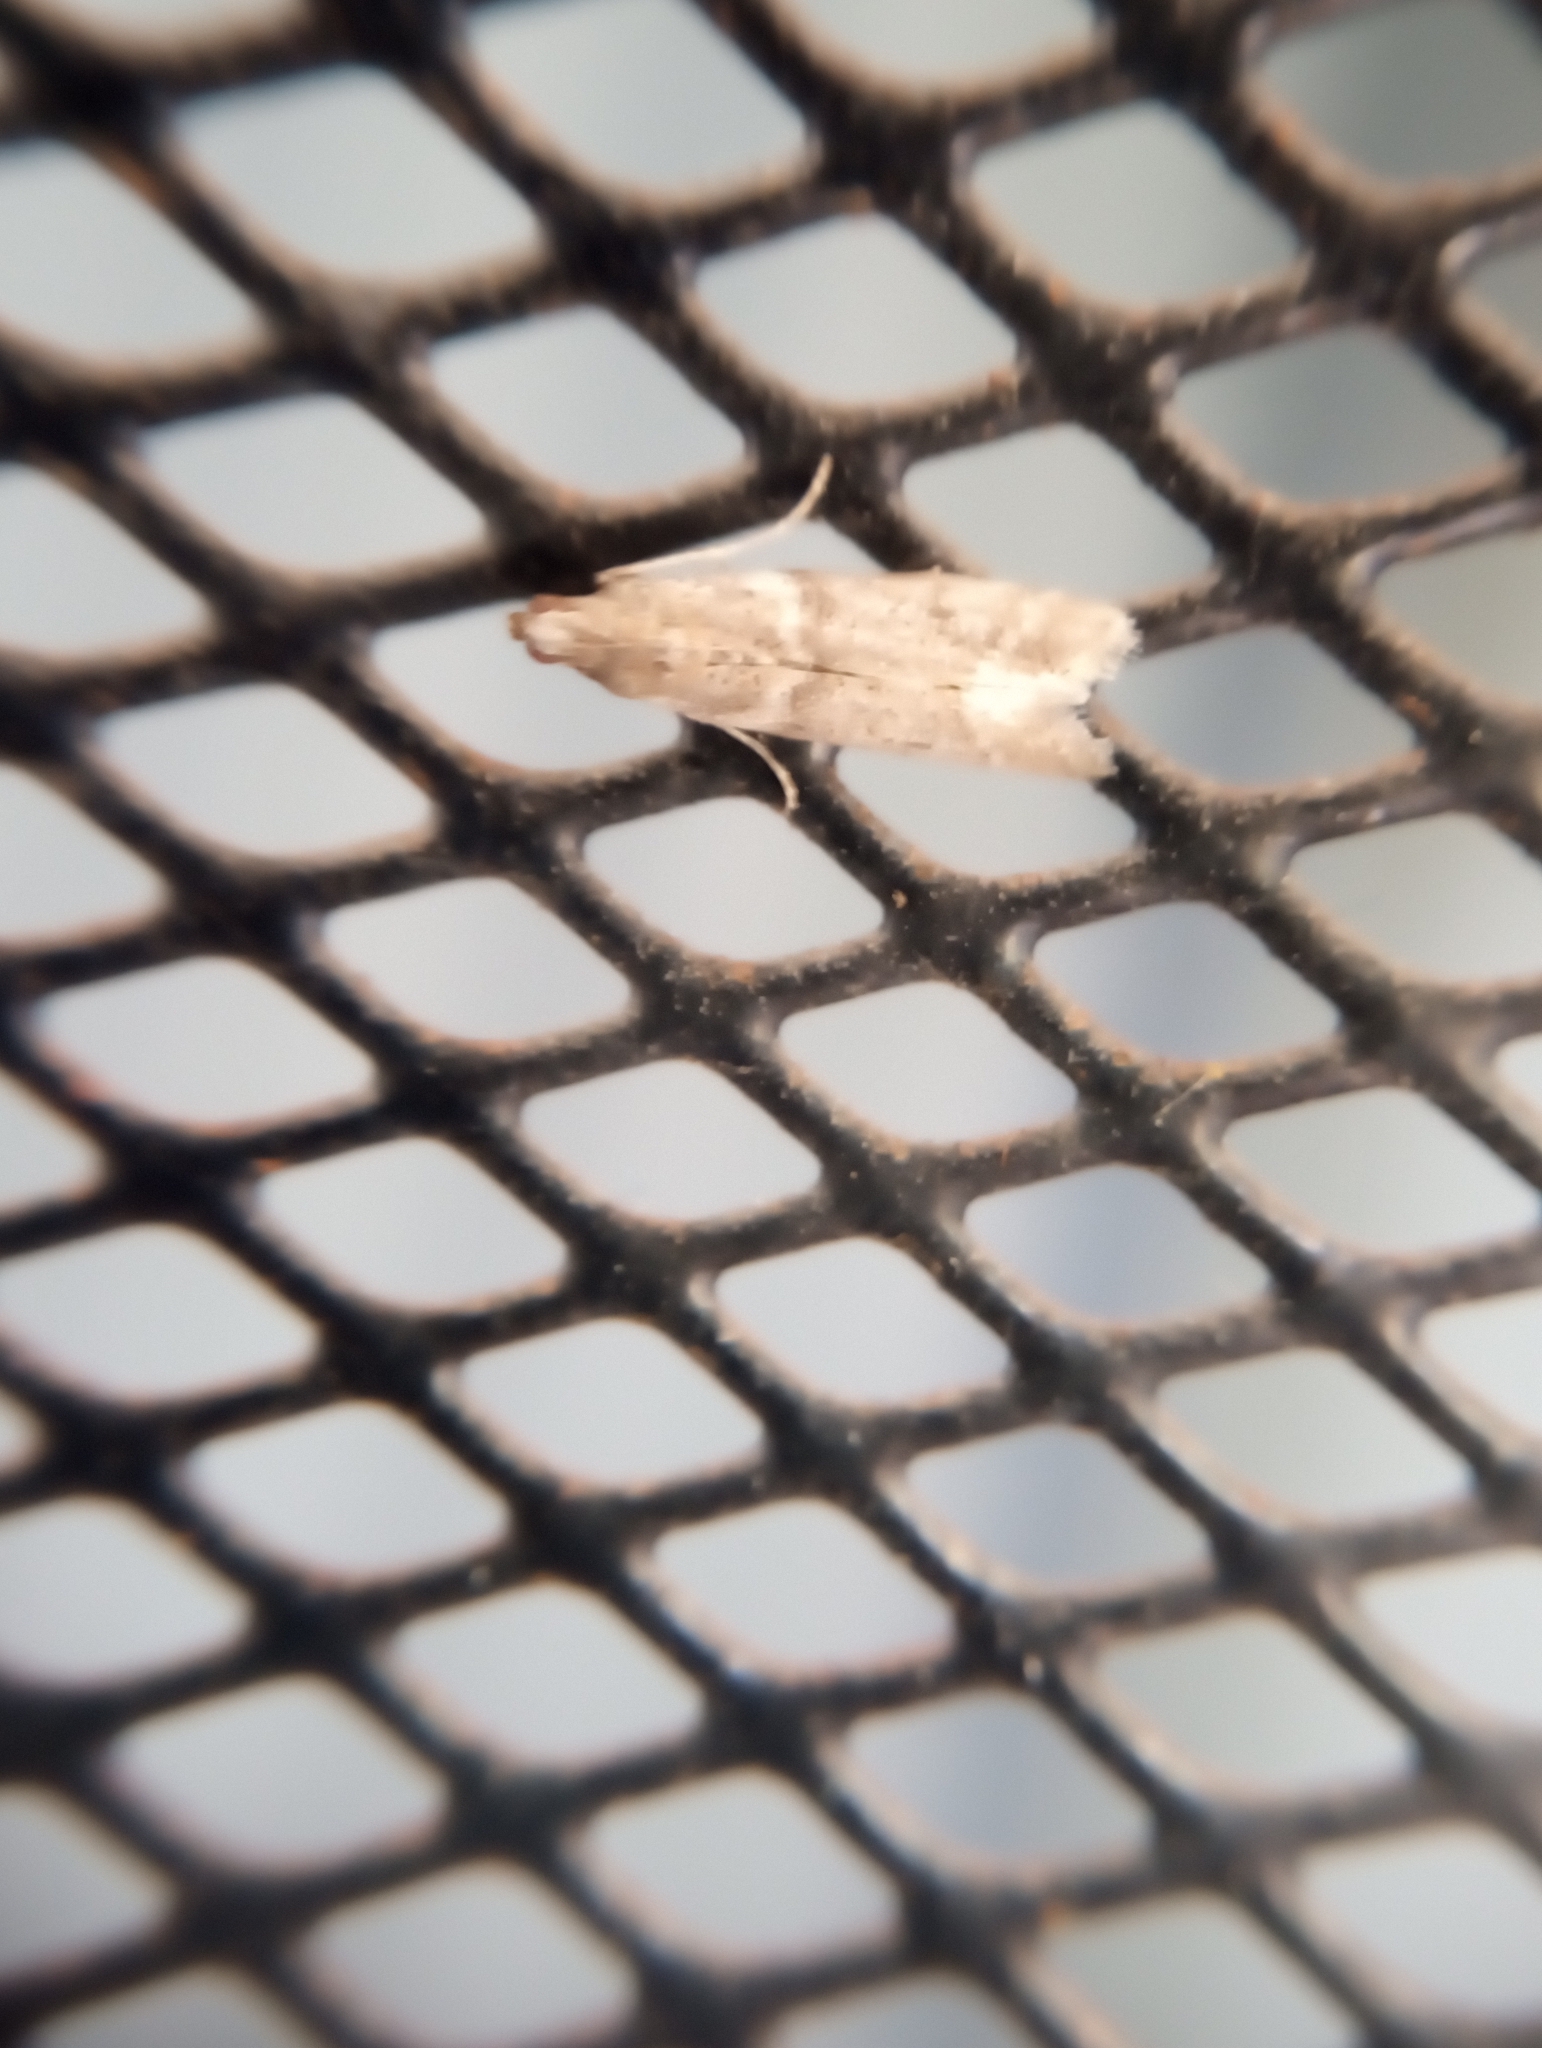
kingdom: Animalia
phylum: Arthropoda
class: Insecta
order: Lepidoptera
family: Pyralidae
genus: Ephestiodes
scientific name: Ephestiodes gilvescentella
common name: Moth
